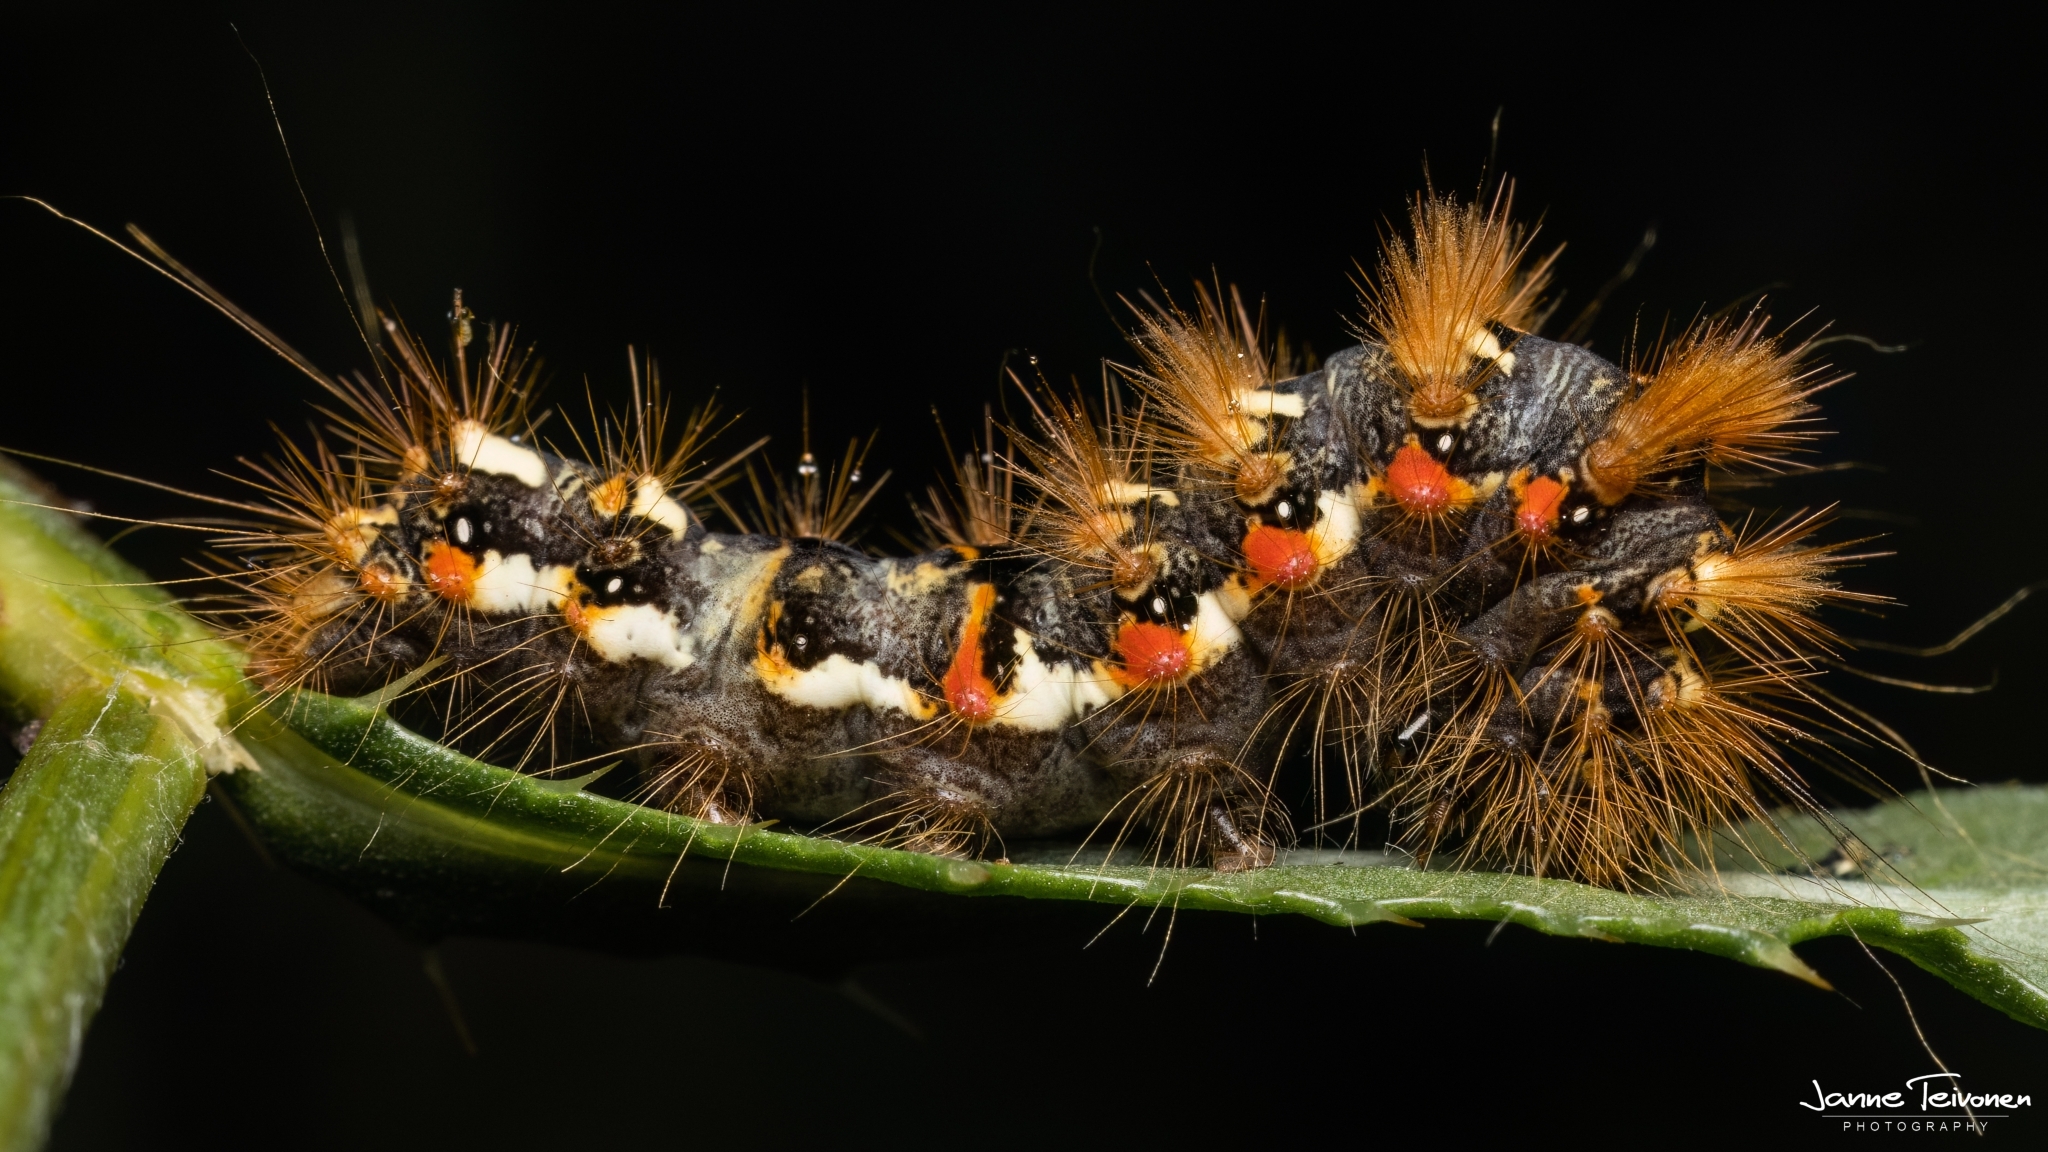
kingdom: Animalia
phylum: Arthropoda
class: Insecta
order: Lepidoptera
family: Noctuidae
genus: Acronicta
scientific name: Acronicta rumicis
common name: Knot grass
